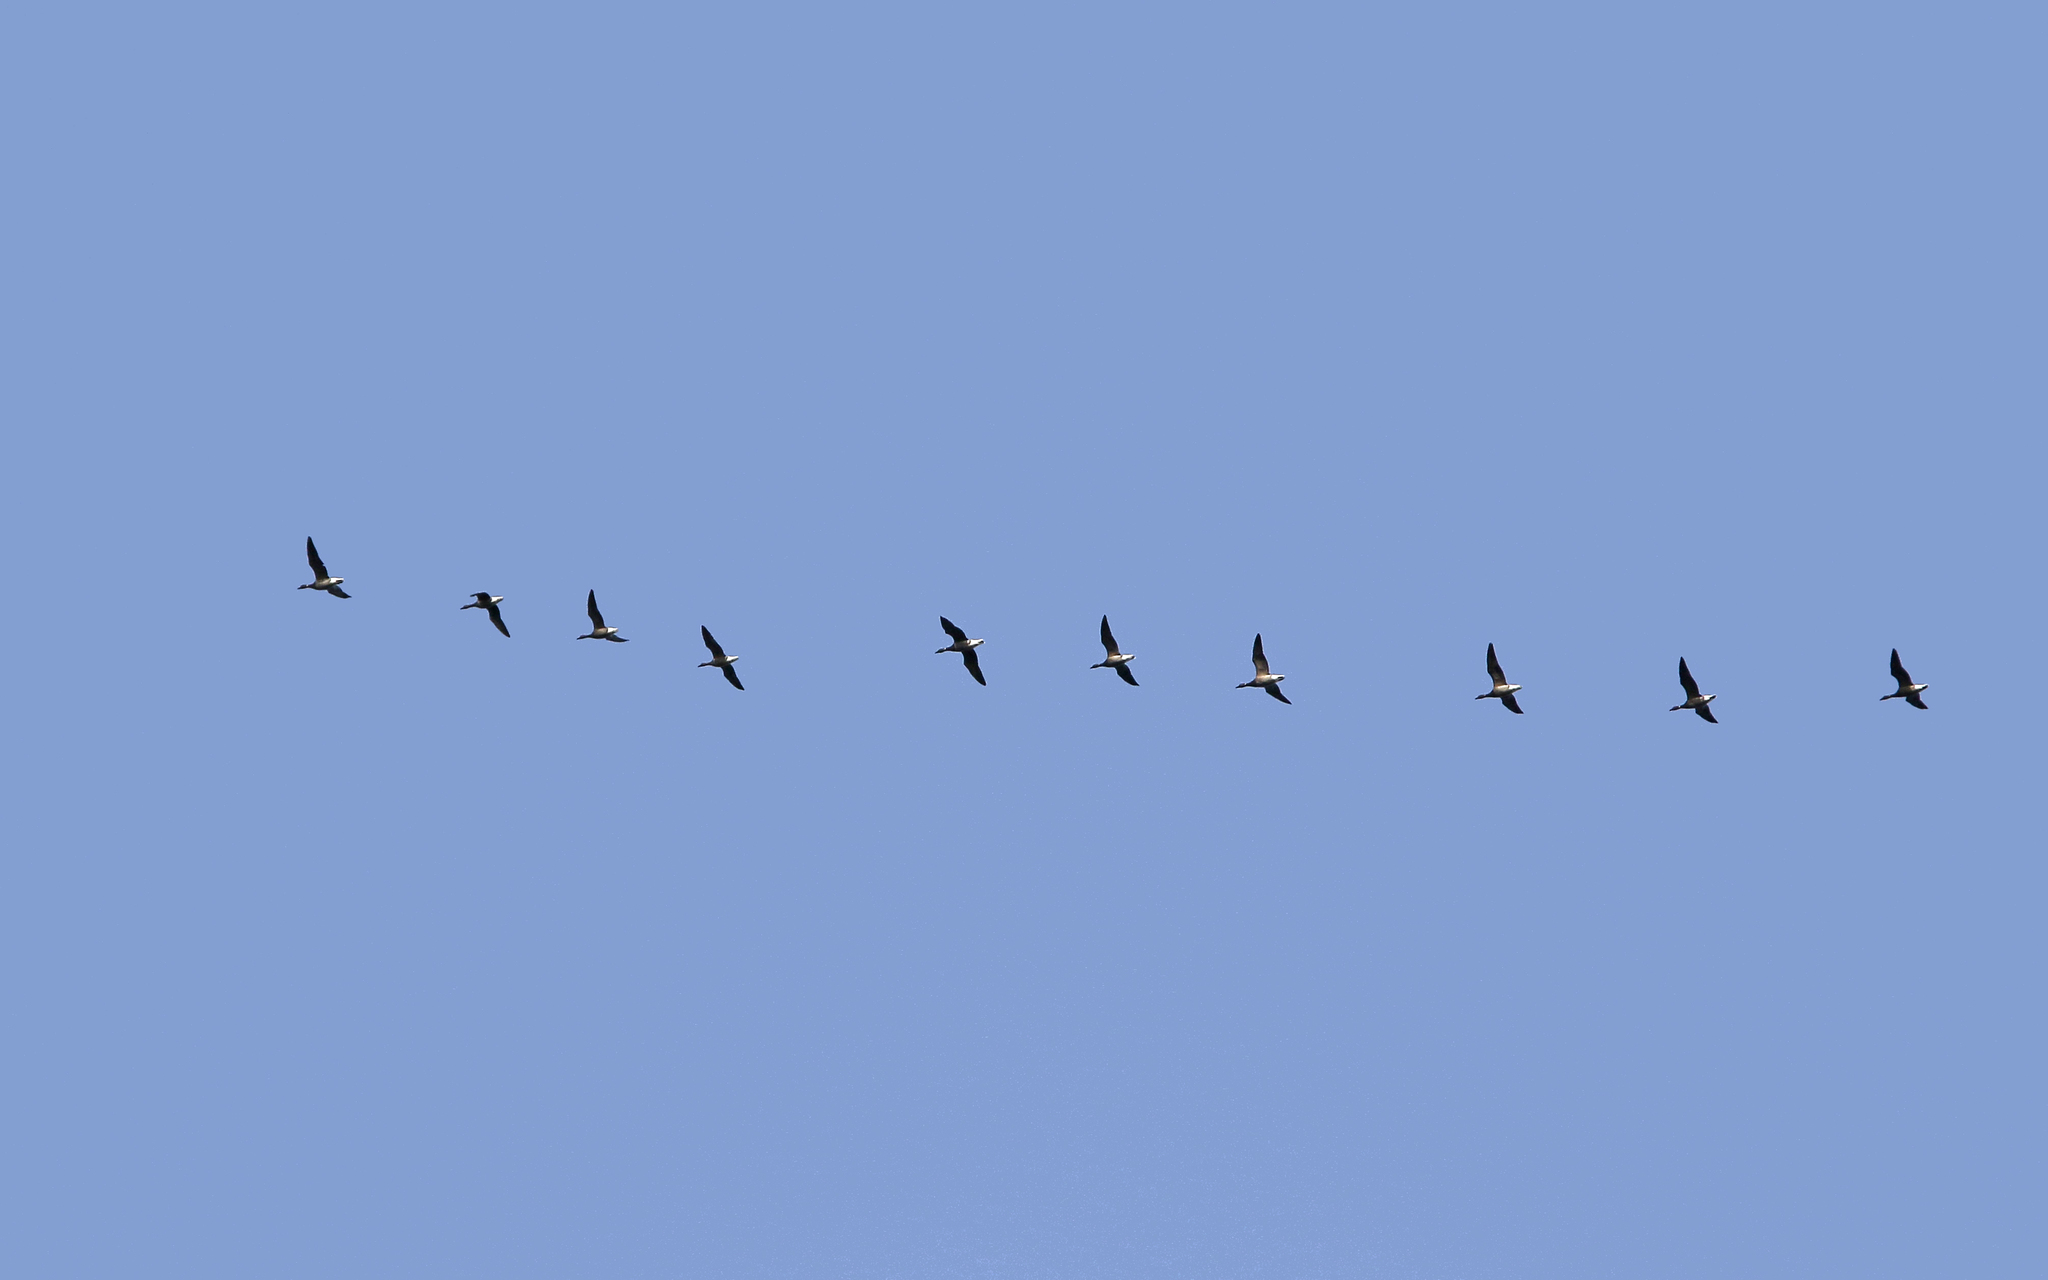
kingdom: Animalia
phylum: Chordata
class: Aves
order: Anseriformes
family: Anatidae
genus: Branta
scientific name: Branta bernicla
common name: Brant goose
